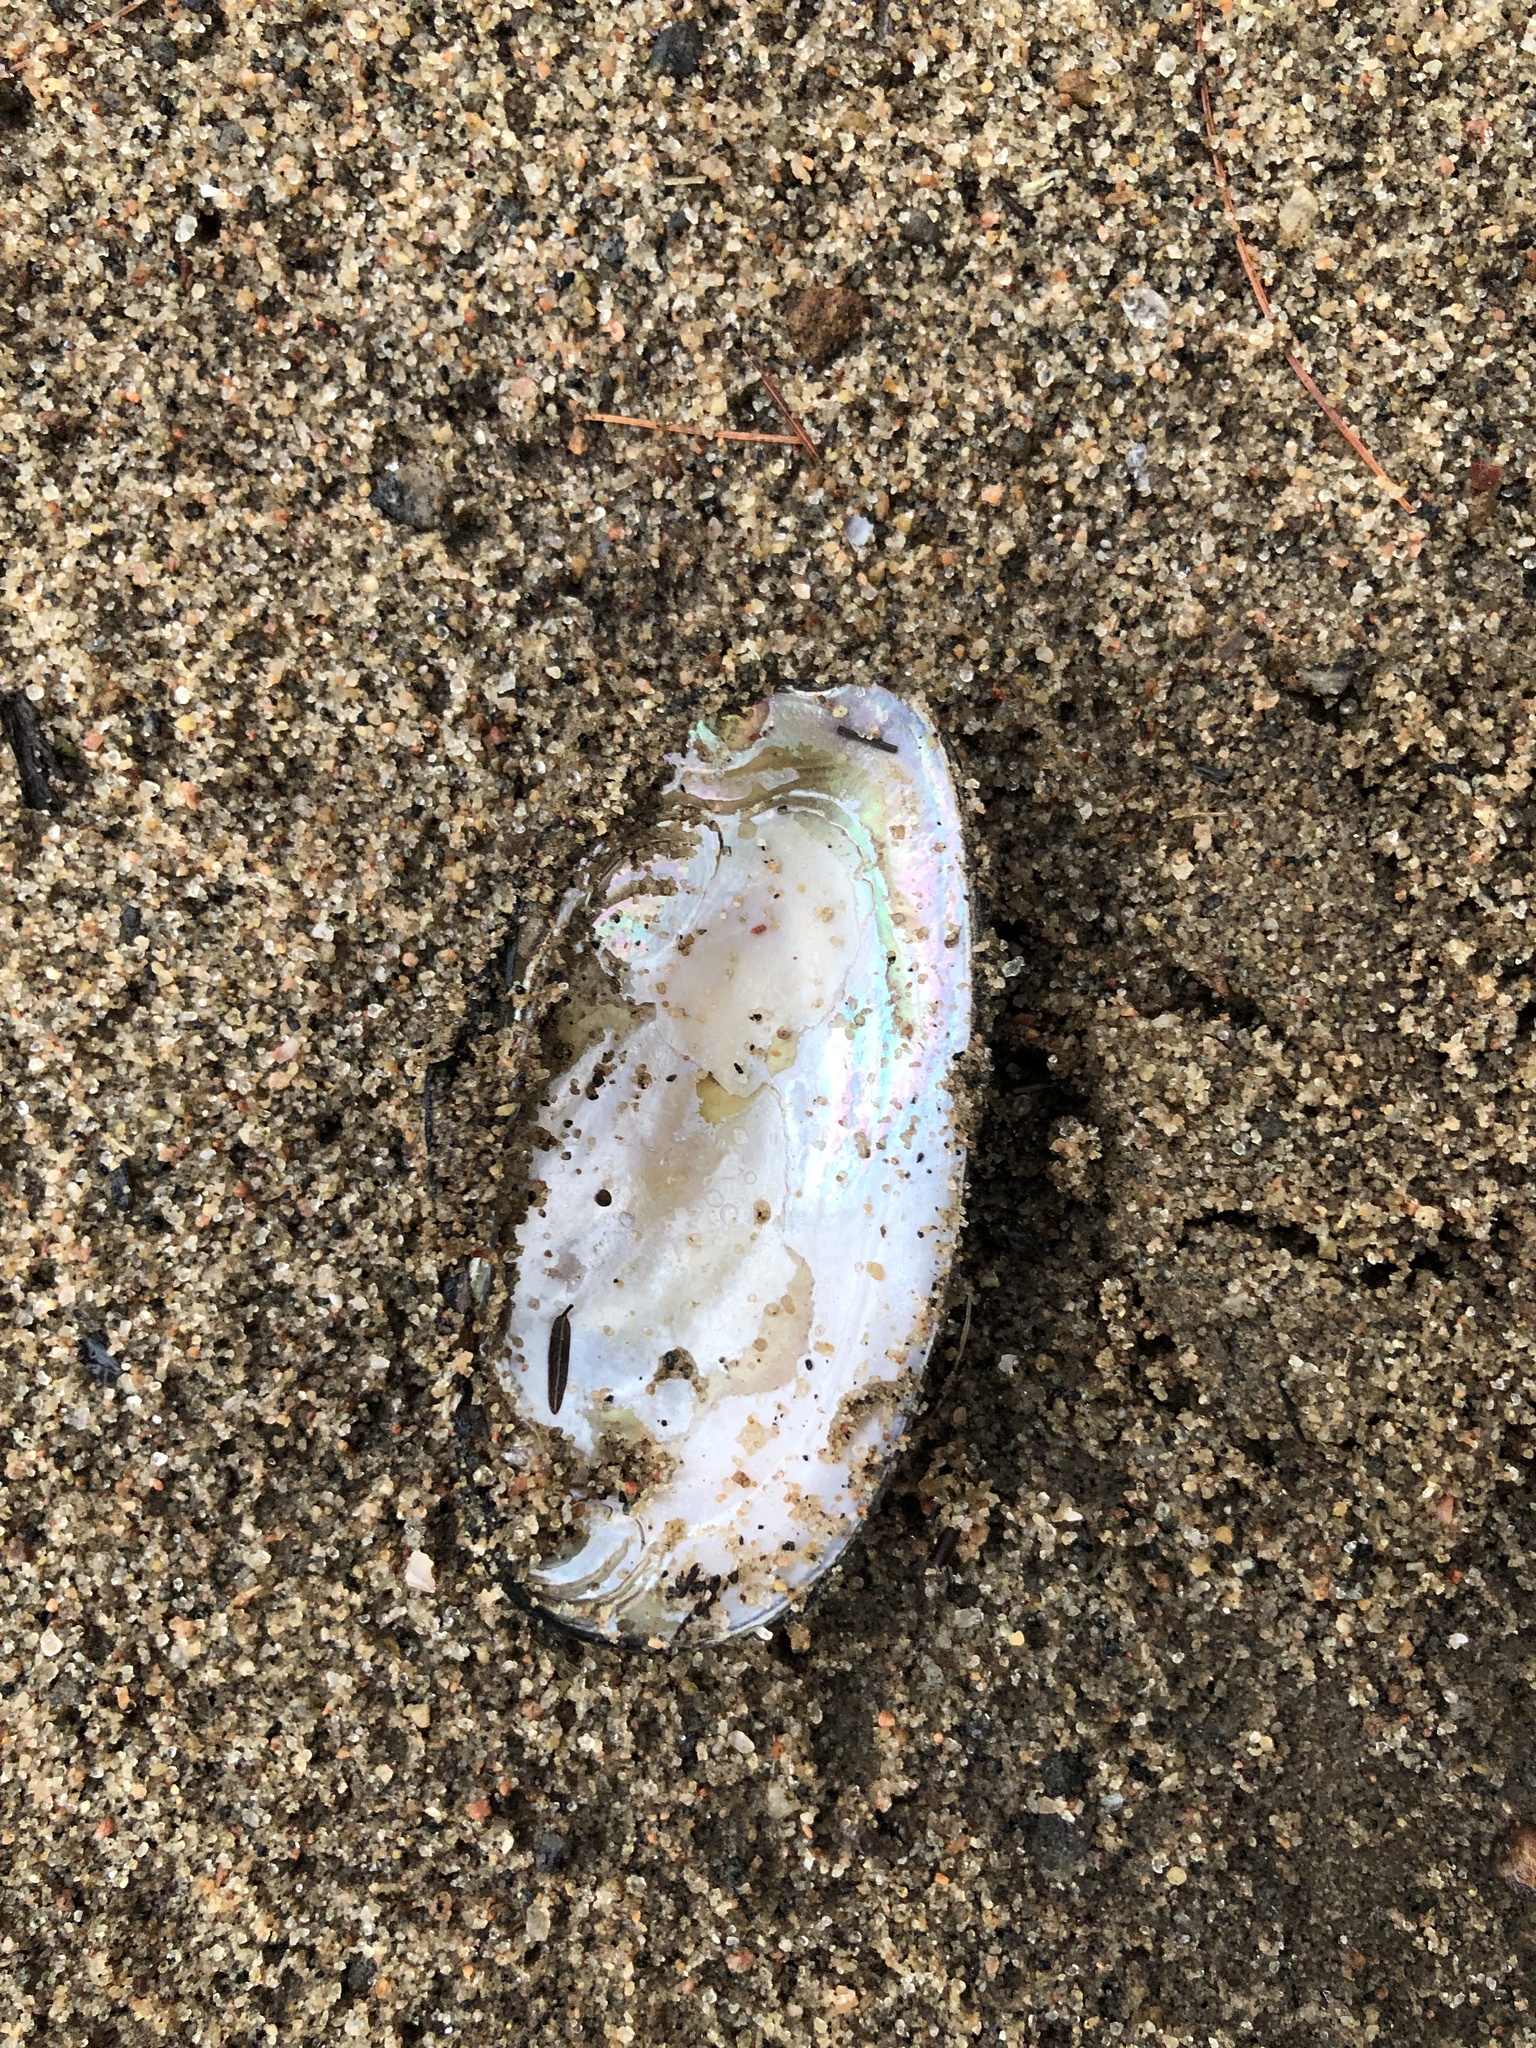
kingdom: Animalia
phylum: Mollusca
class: Bivalvia
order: Unionida
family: Unionidae
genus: Elliptio
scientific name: Elliptio complanata
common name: Eastern elliptio
